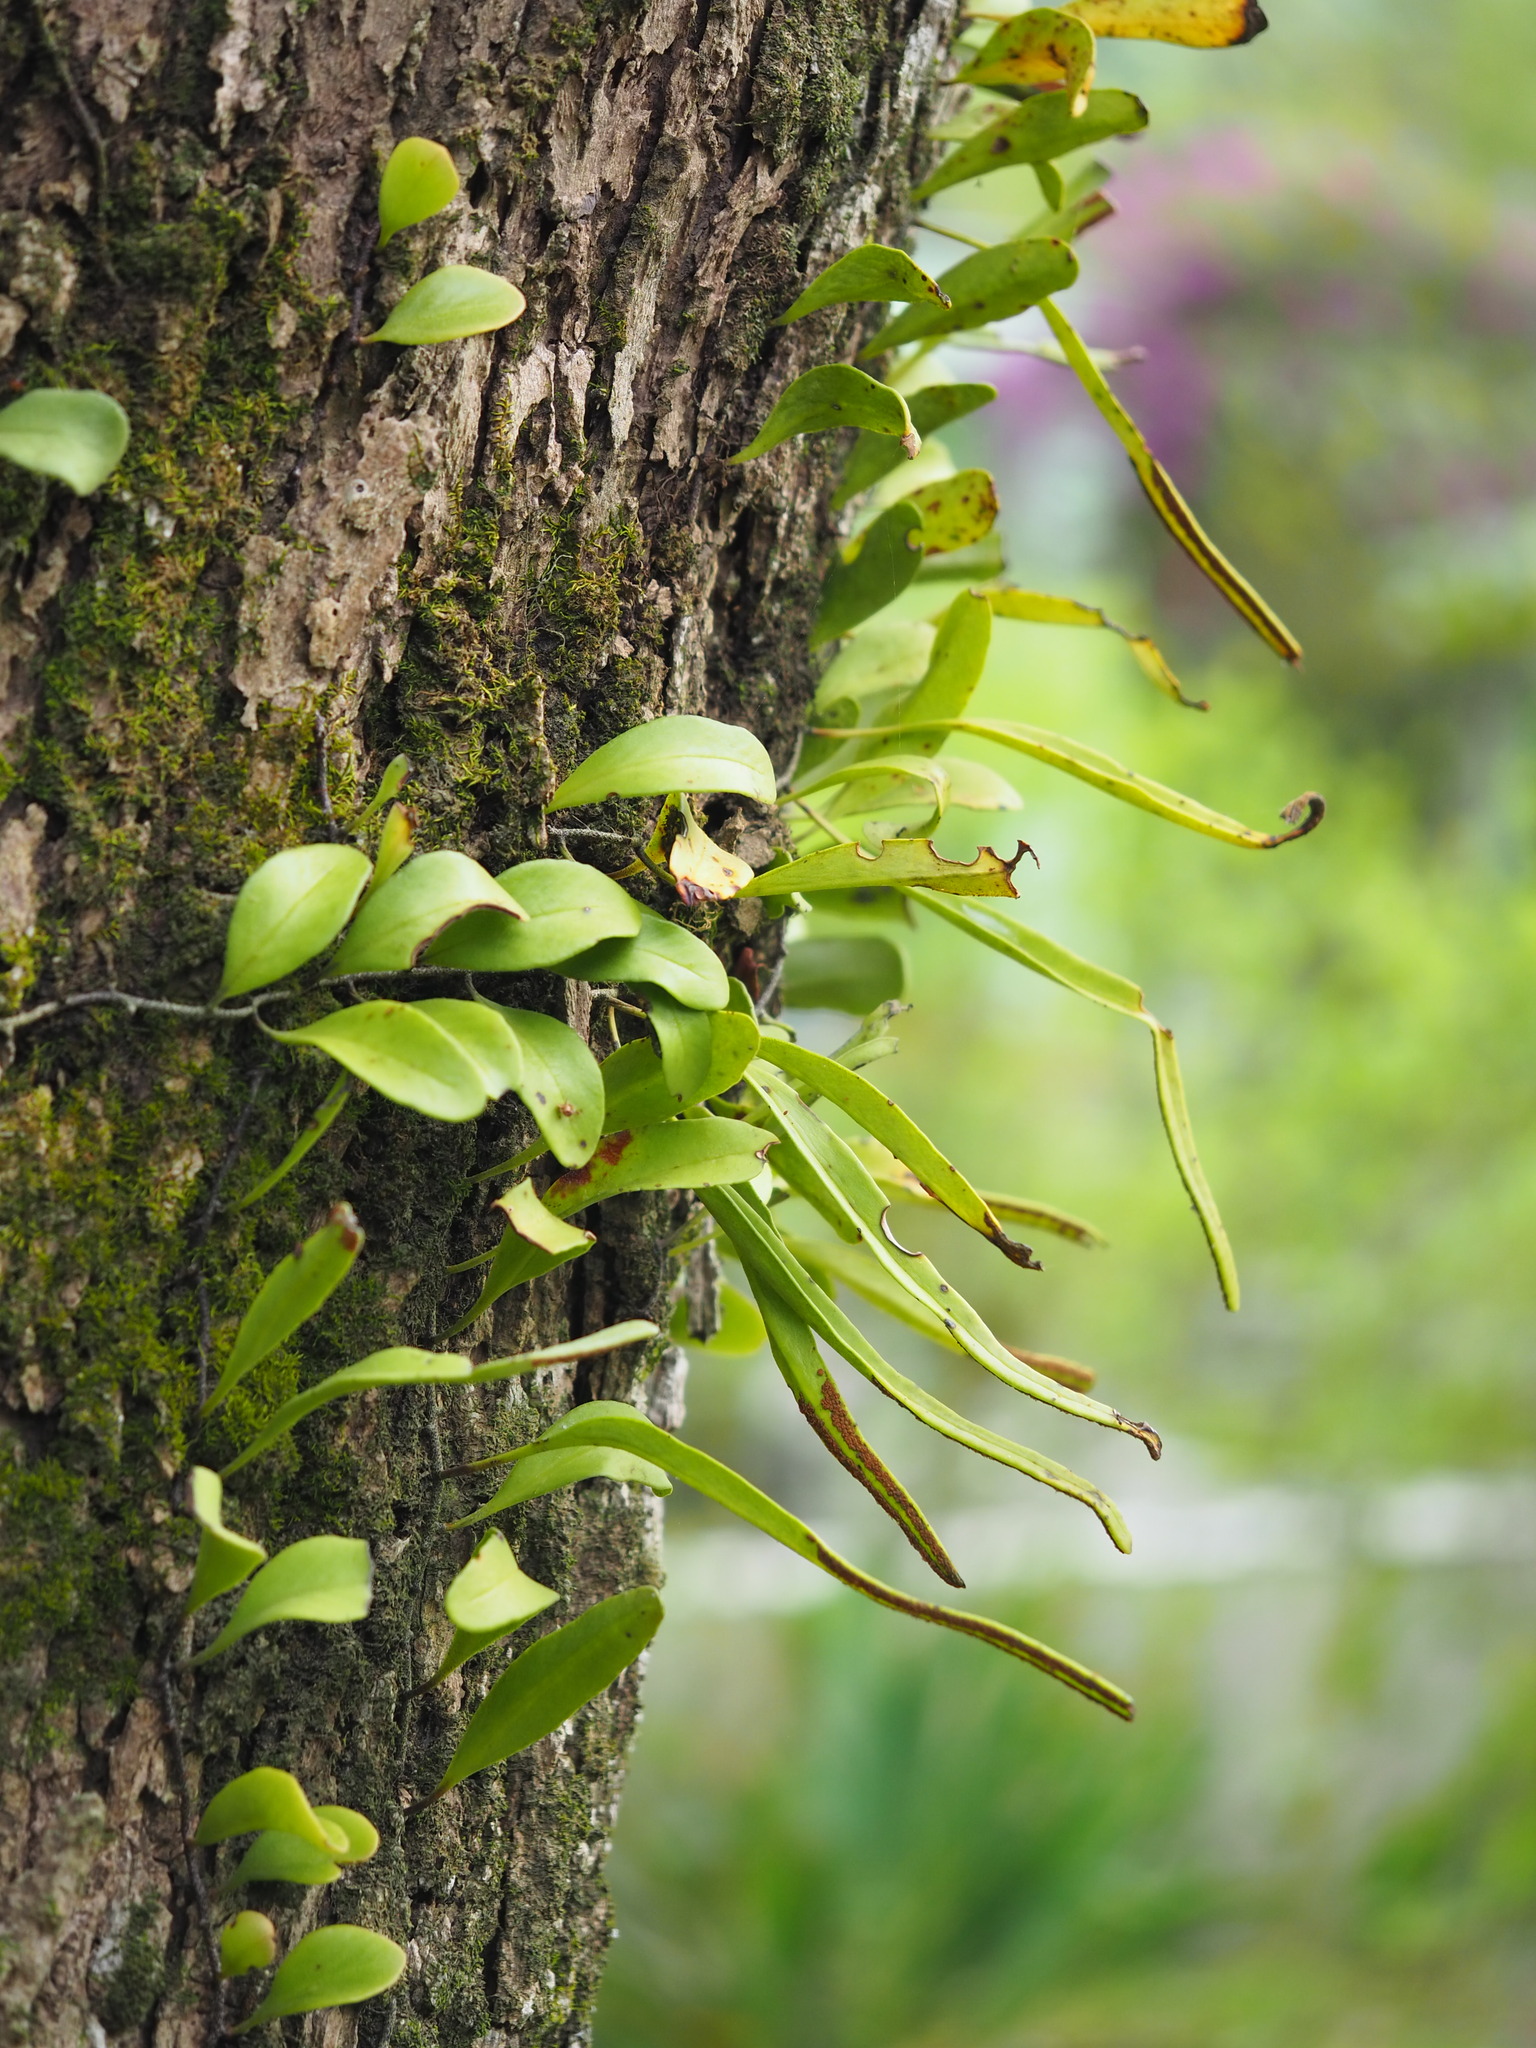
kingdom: Plantae
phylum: Tracheophyta
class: Polypodiopsida
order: Polypodiales
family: Polypodiaceae
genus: Pyrrosia
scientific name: Pyrrosia lanceolata
